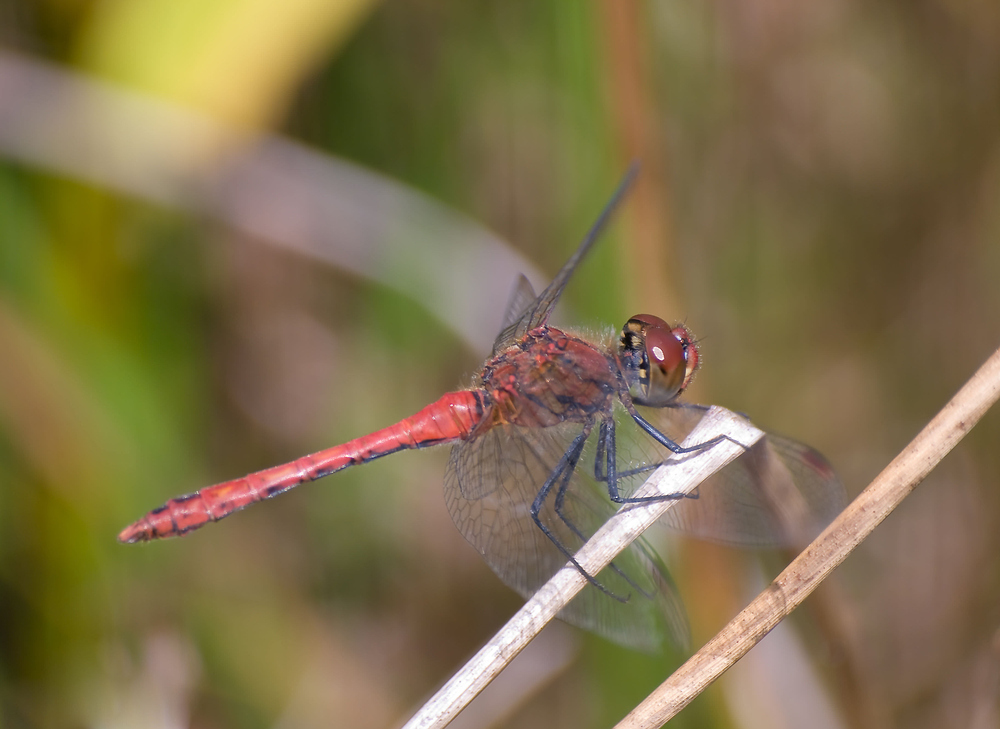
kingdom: Animalia
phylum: Arthropoda
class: Insecta
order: Odonata
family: Libellulidae
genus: Sympetrum
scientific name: Sympetrum sanguineum
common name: Ruddy darter
